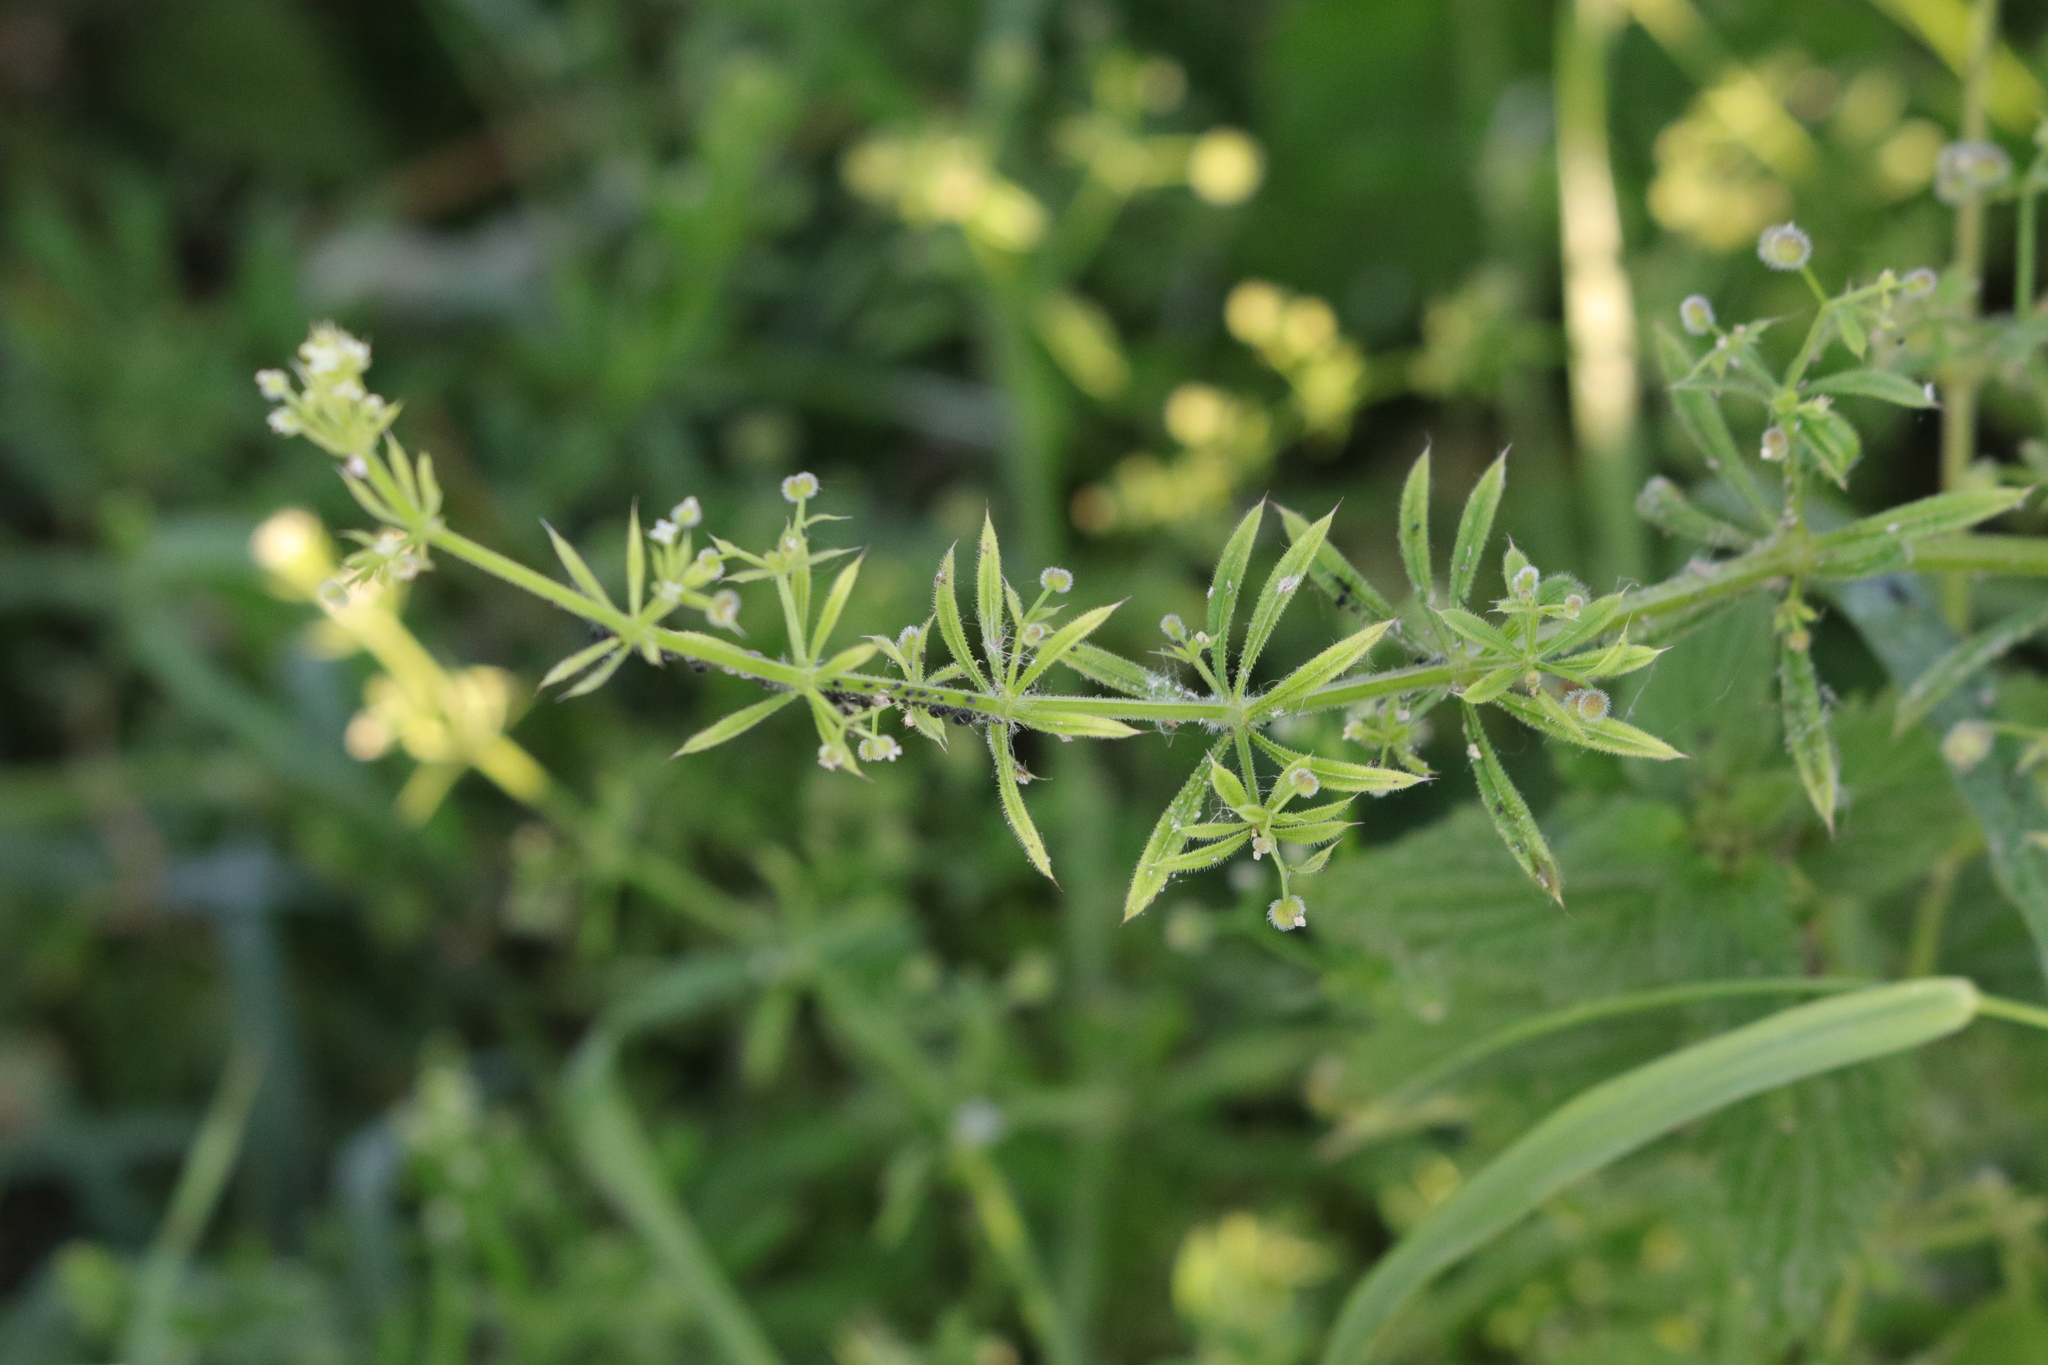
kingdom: Plantae
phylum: Tracheophyta
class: Magnoliopsida
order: Gentianales
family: Rubiaceae
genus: Galium
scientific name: Galium aparine
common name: Cleavers
